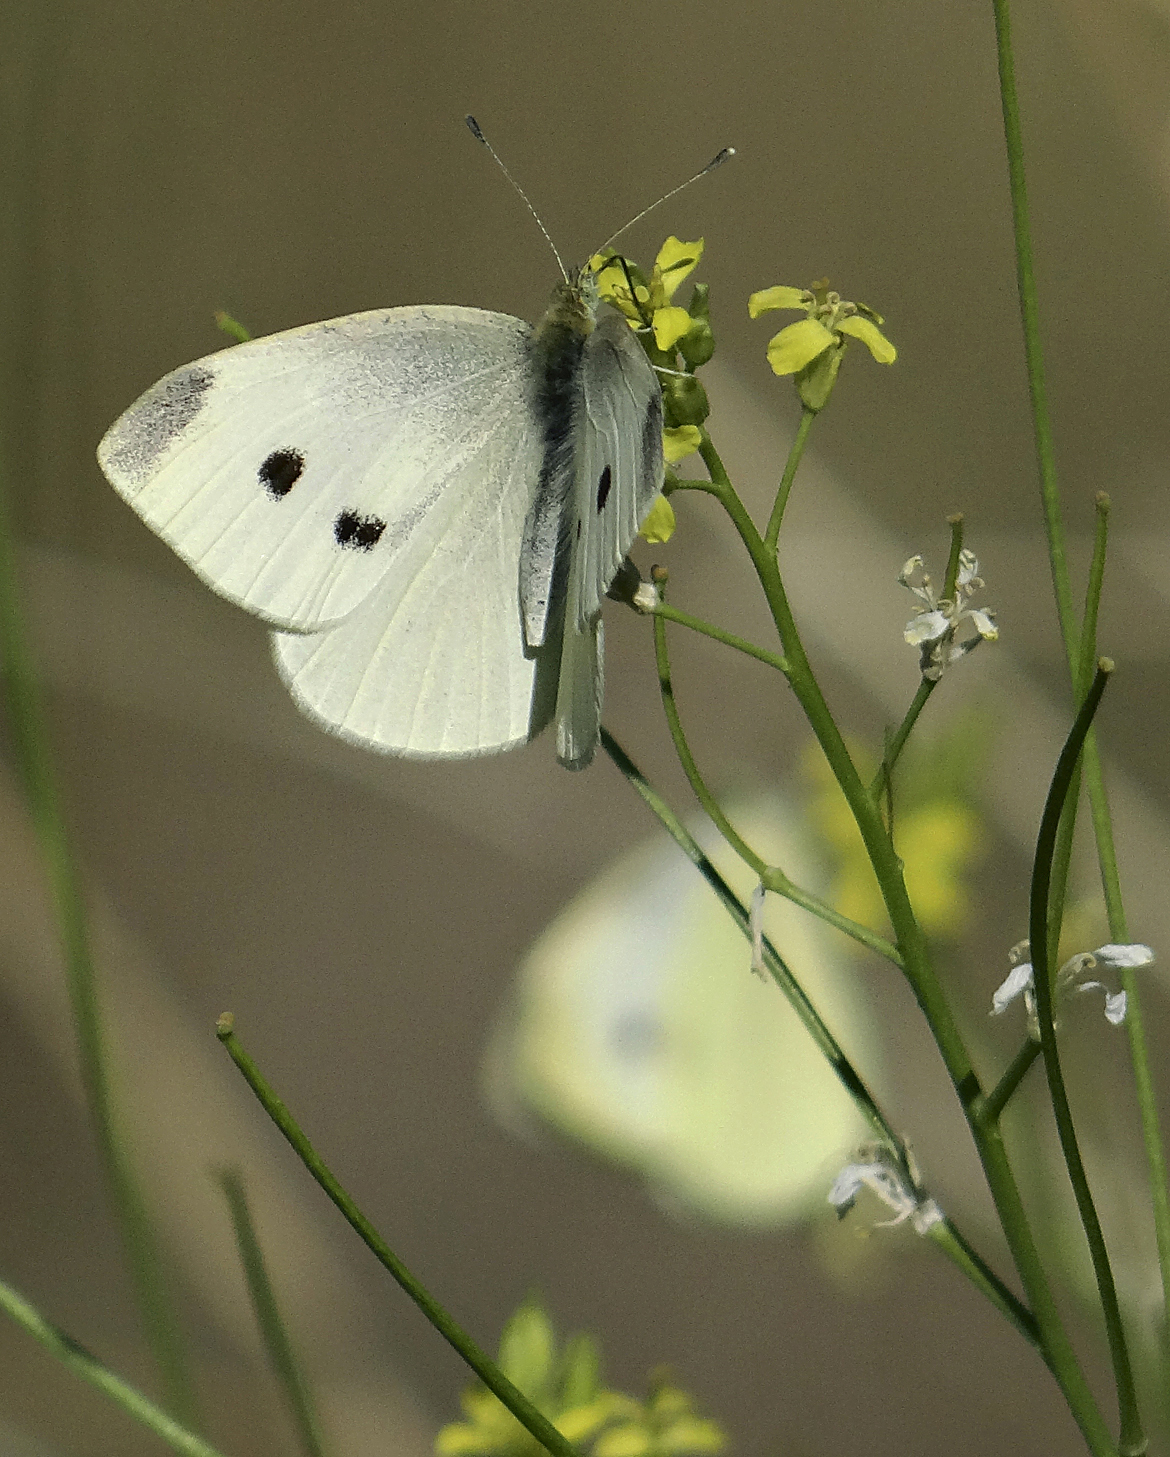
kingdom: Animalia
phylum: Arthropoda
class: Insecta
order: Lepidoptera
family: Pieridae
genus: Pieris
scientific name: Pieris rapae
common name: Small white
